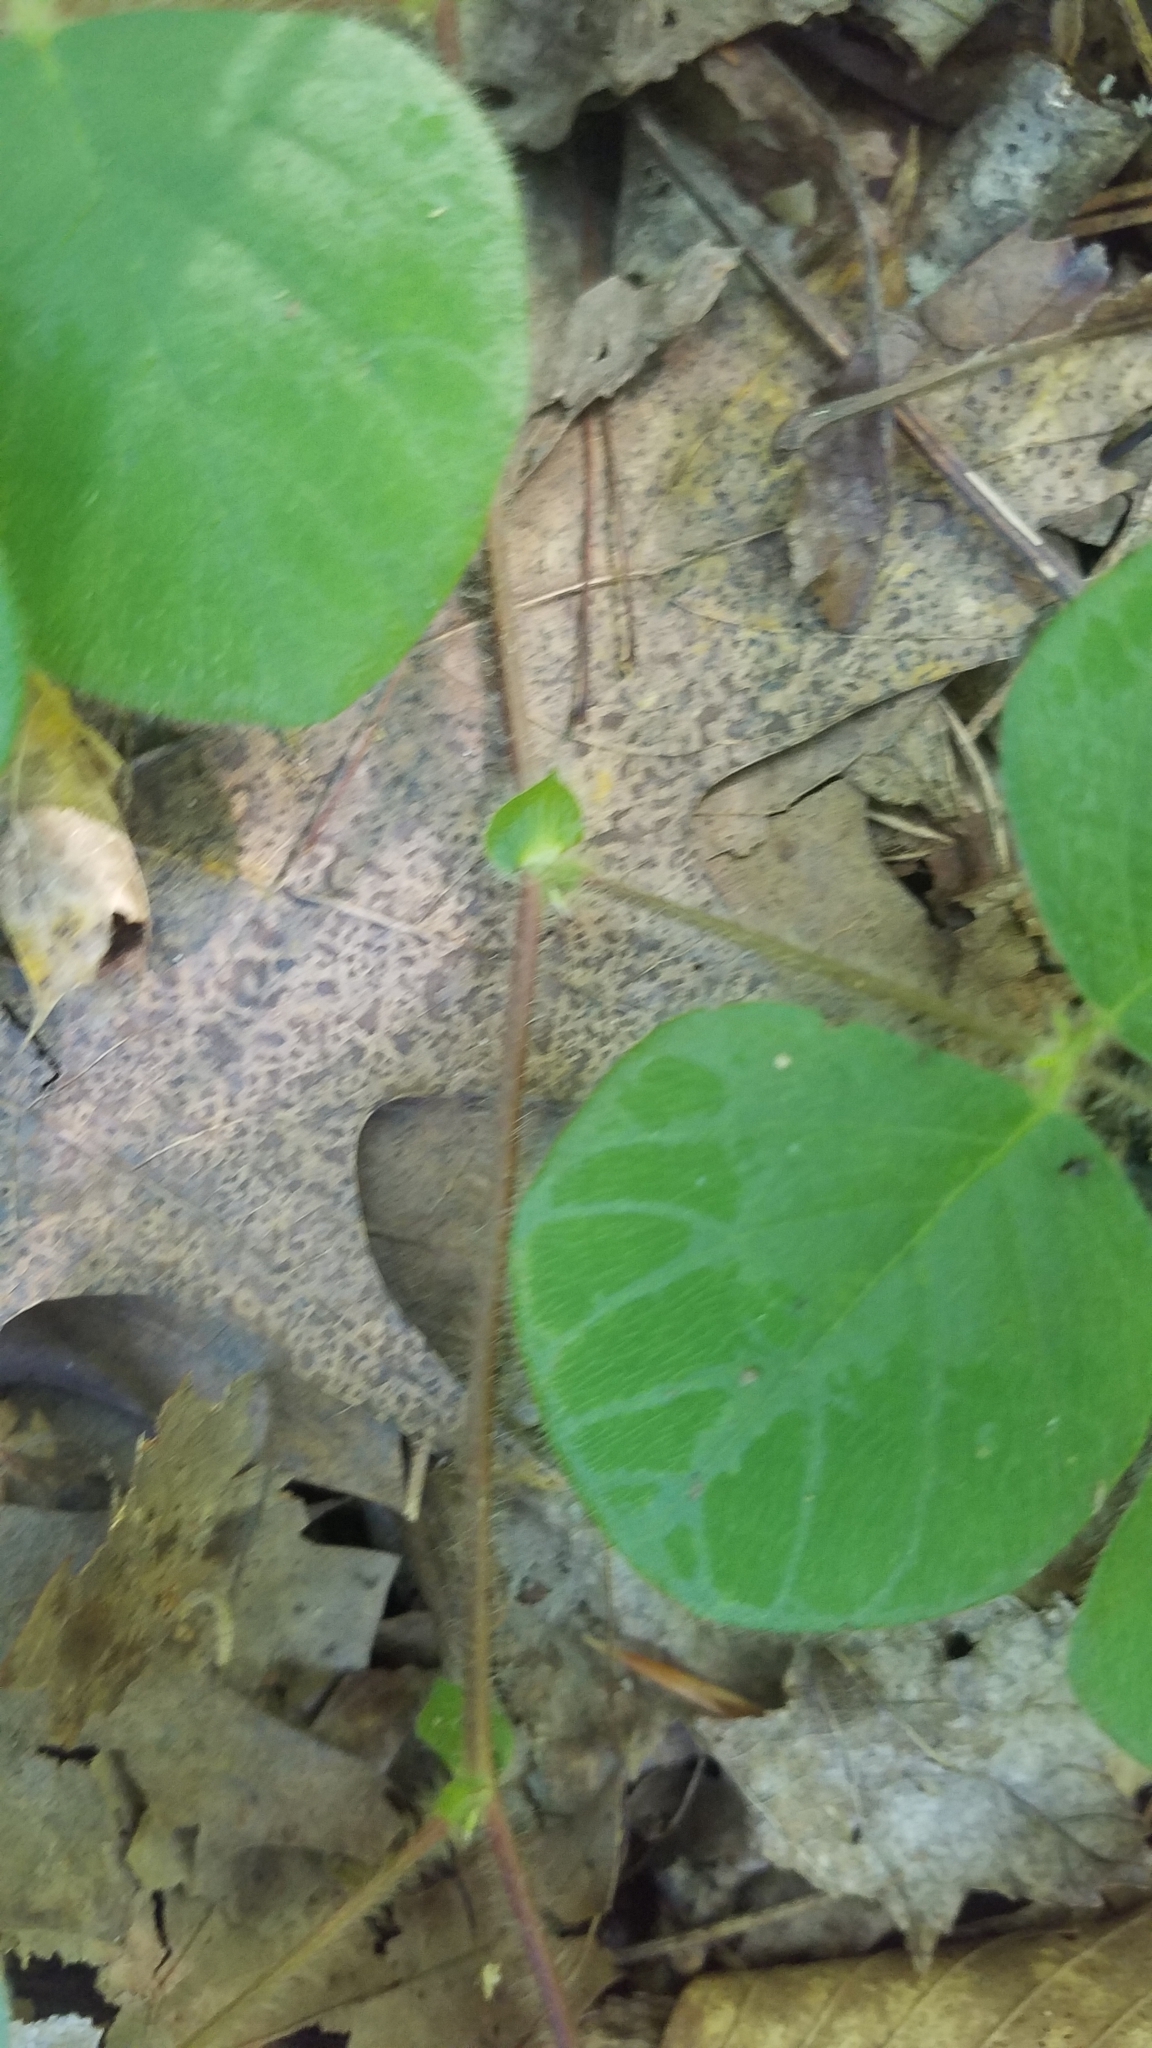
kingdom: Plantae
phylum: Tracheophyta
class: Magnoliopsida
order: Fabales
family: Fabaceae
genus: Desmodium
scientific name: Desmodium rotundifolium
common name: Dollarleaf
